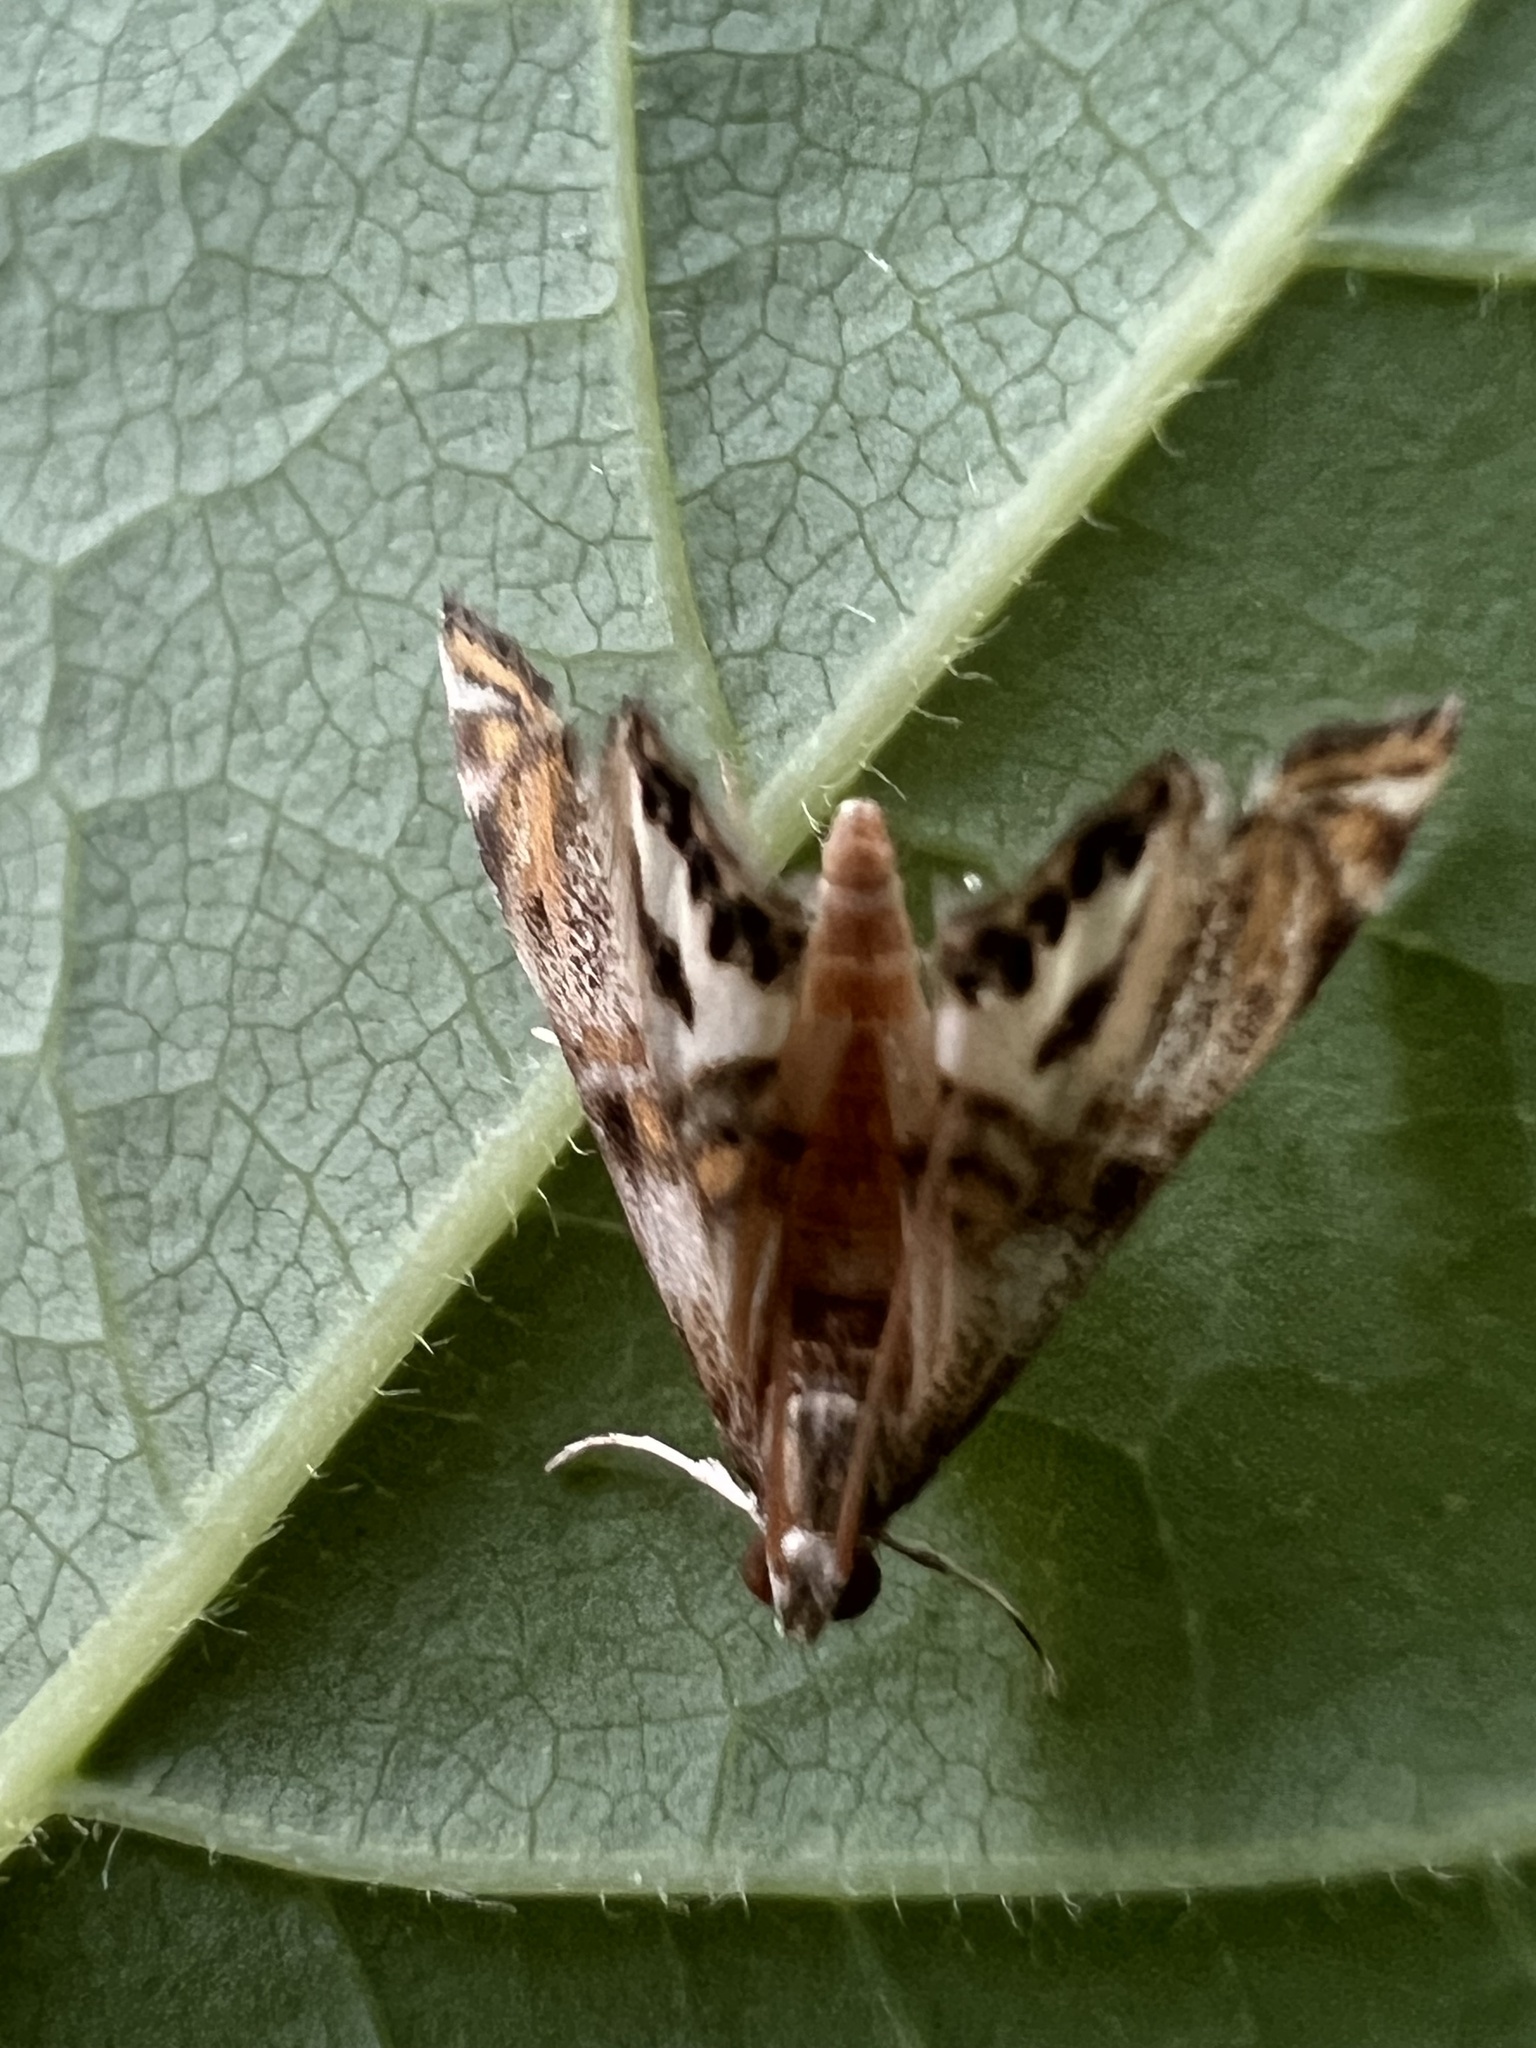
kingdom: Animalia
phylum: Arthropoda
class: Insecta
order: Lepidoptera
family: Crambidae
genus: Petrophila
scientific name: Petrophila bifascialis
